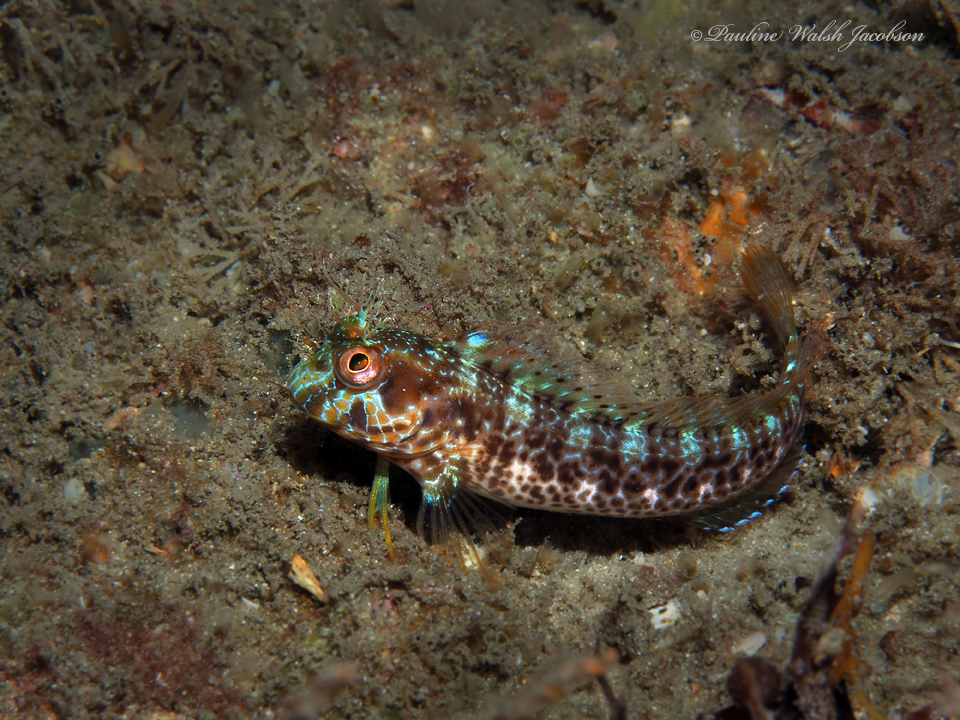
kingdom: Animalia
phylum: Chordata
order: Perciformes
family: Blenniidae
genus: Parablennius
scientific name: Parablennius marmoreus
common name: Seaweed blenny
